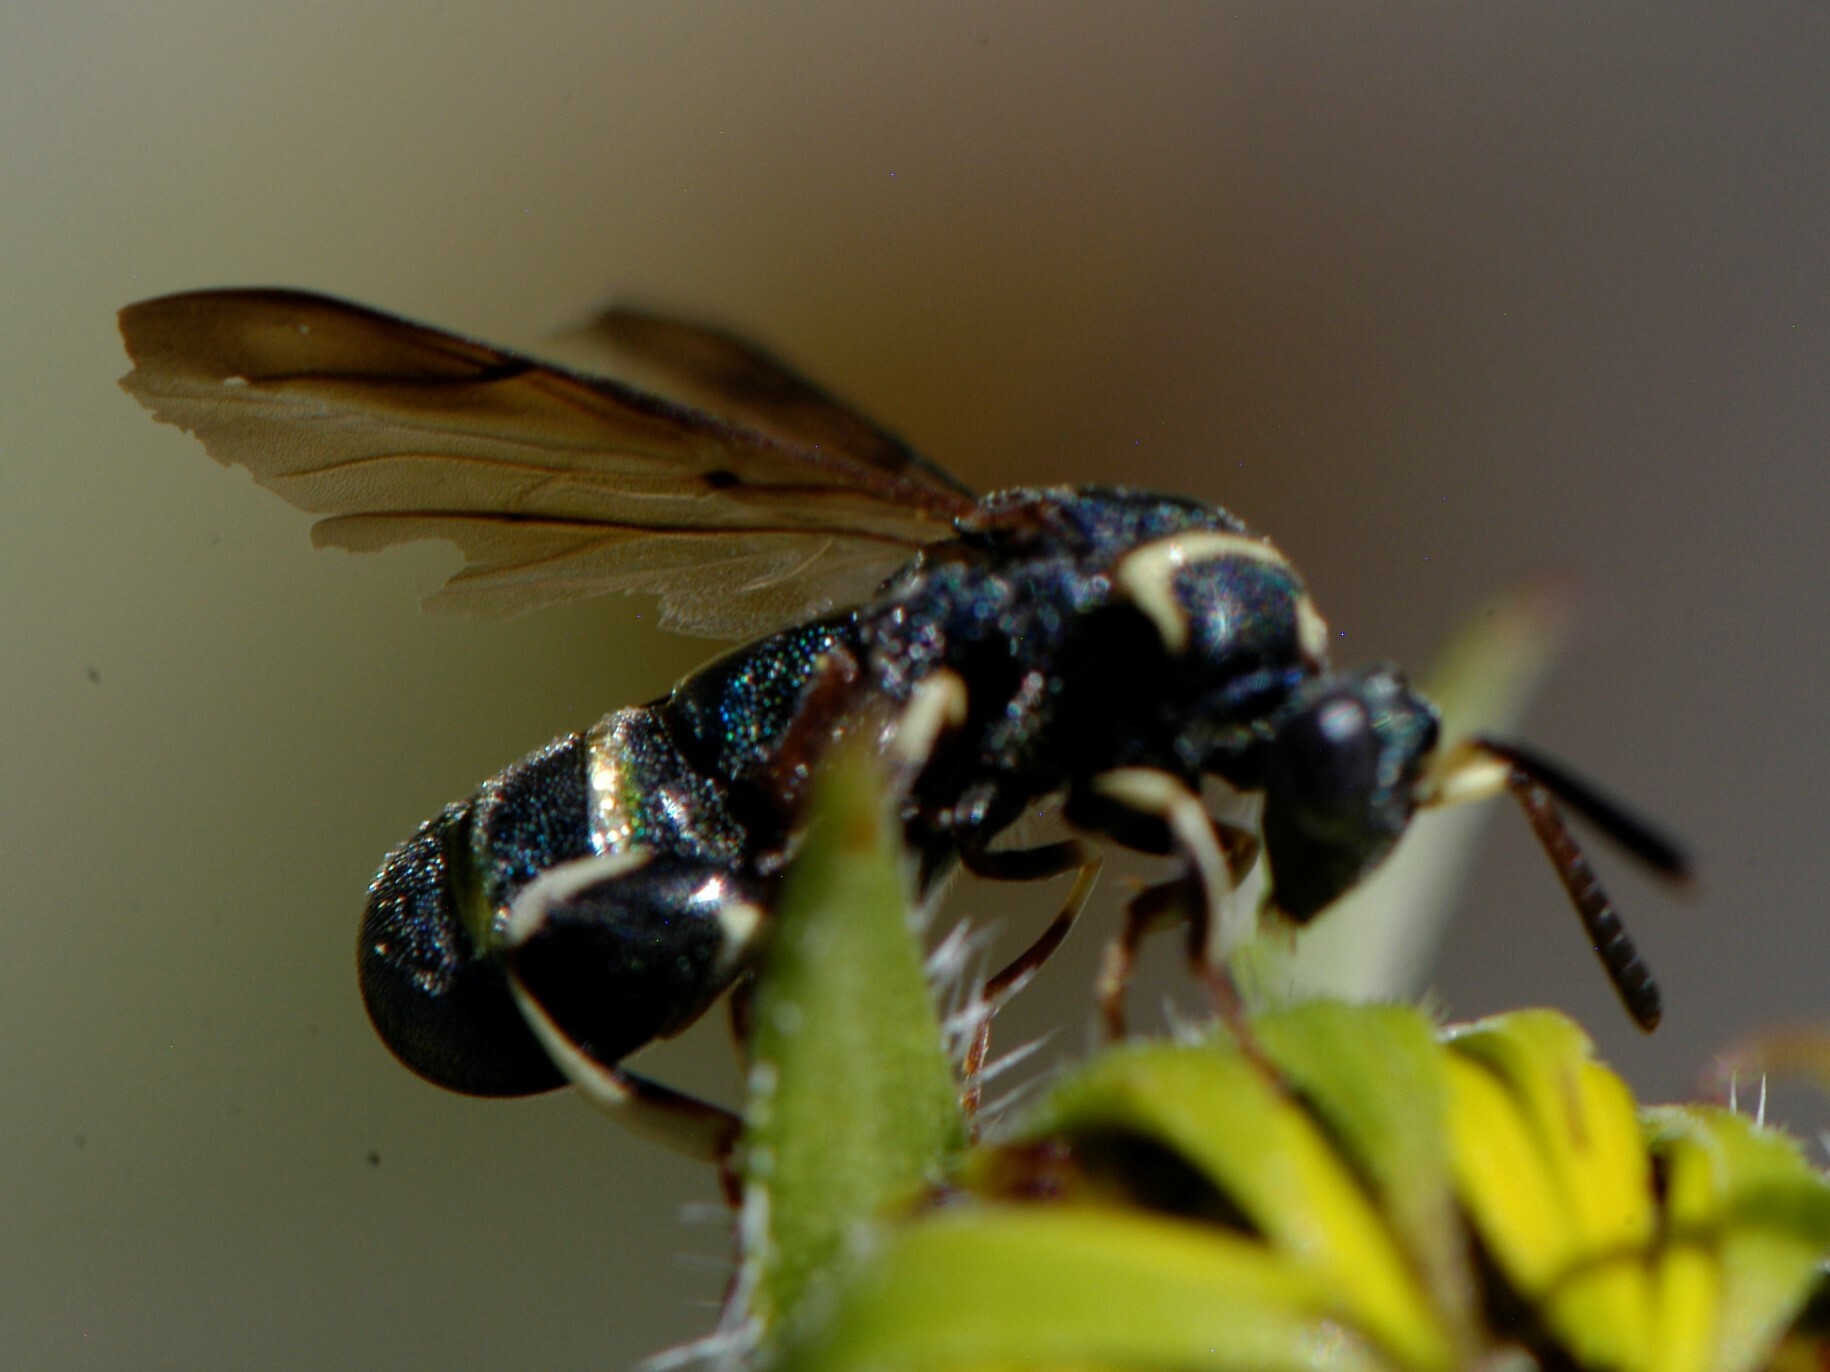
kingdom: Animalia
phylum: Arthropoda
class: Insecta
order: Hymenoptera
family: Leucospidae
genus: Leucospis
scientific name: Leucospis birkmani
